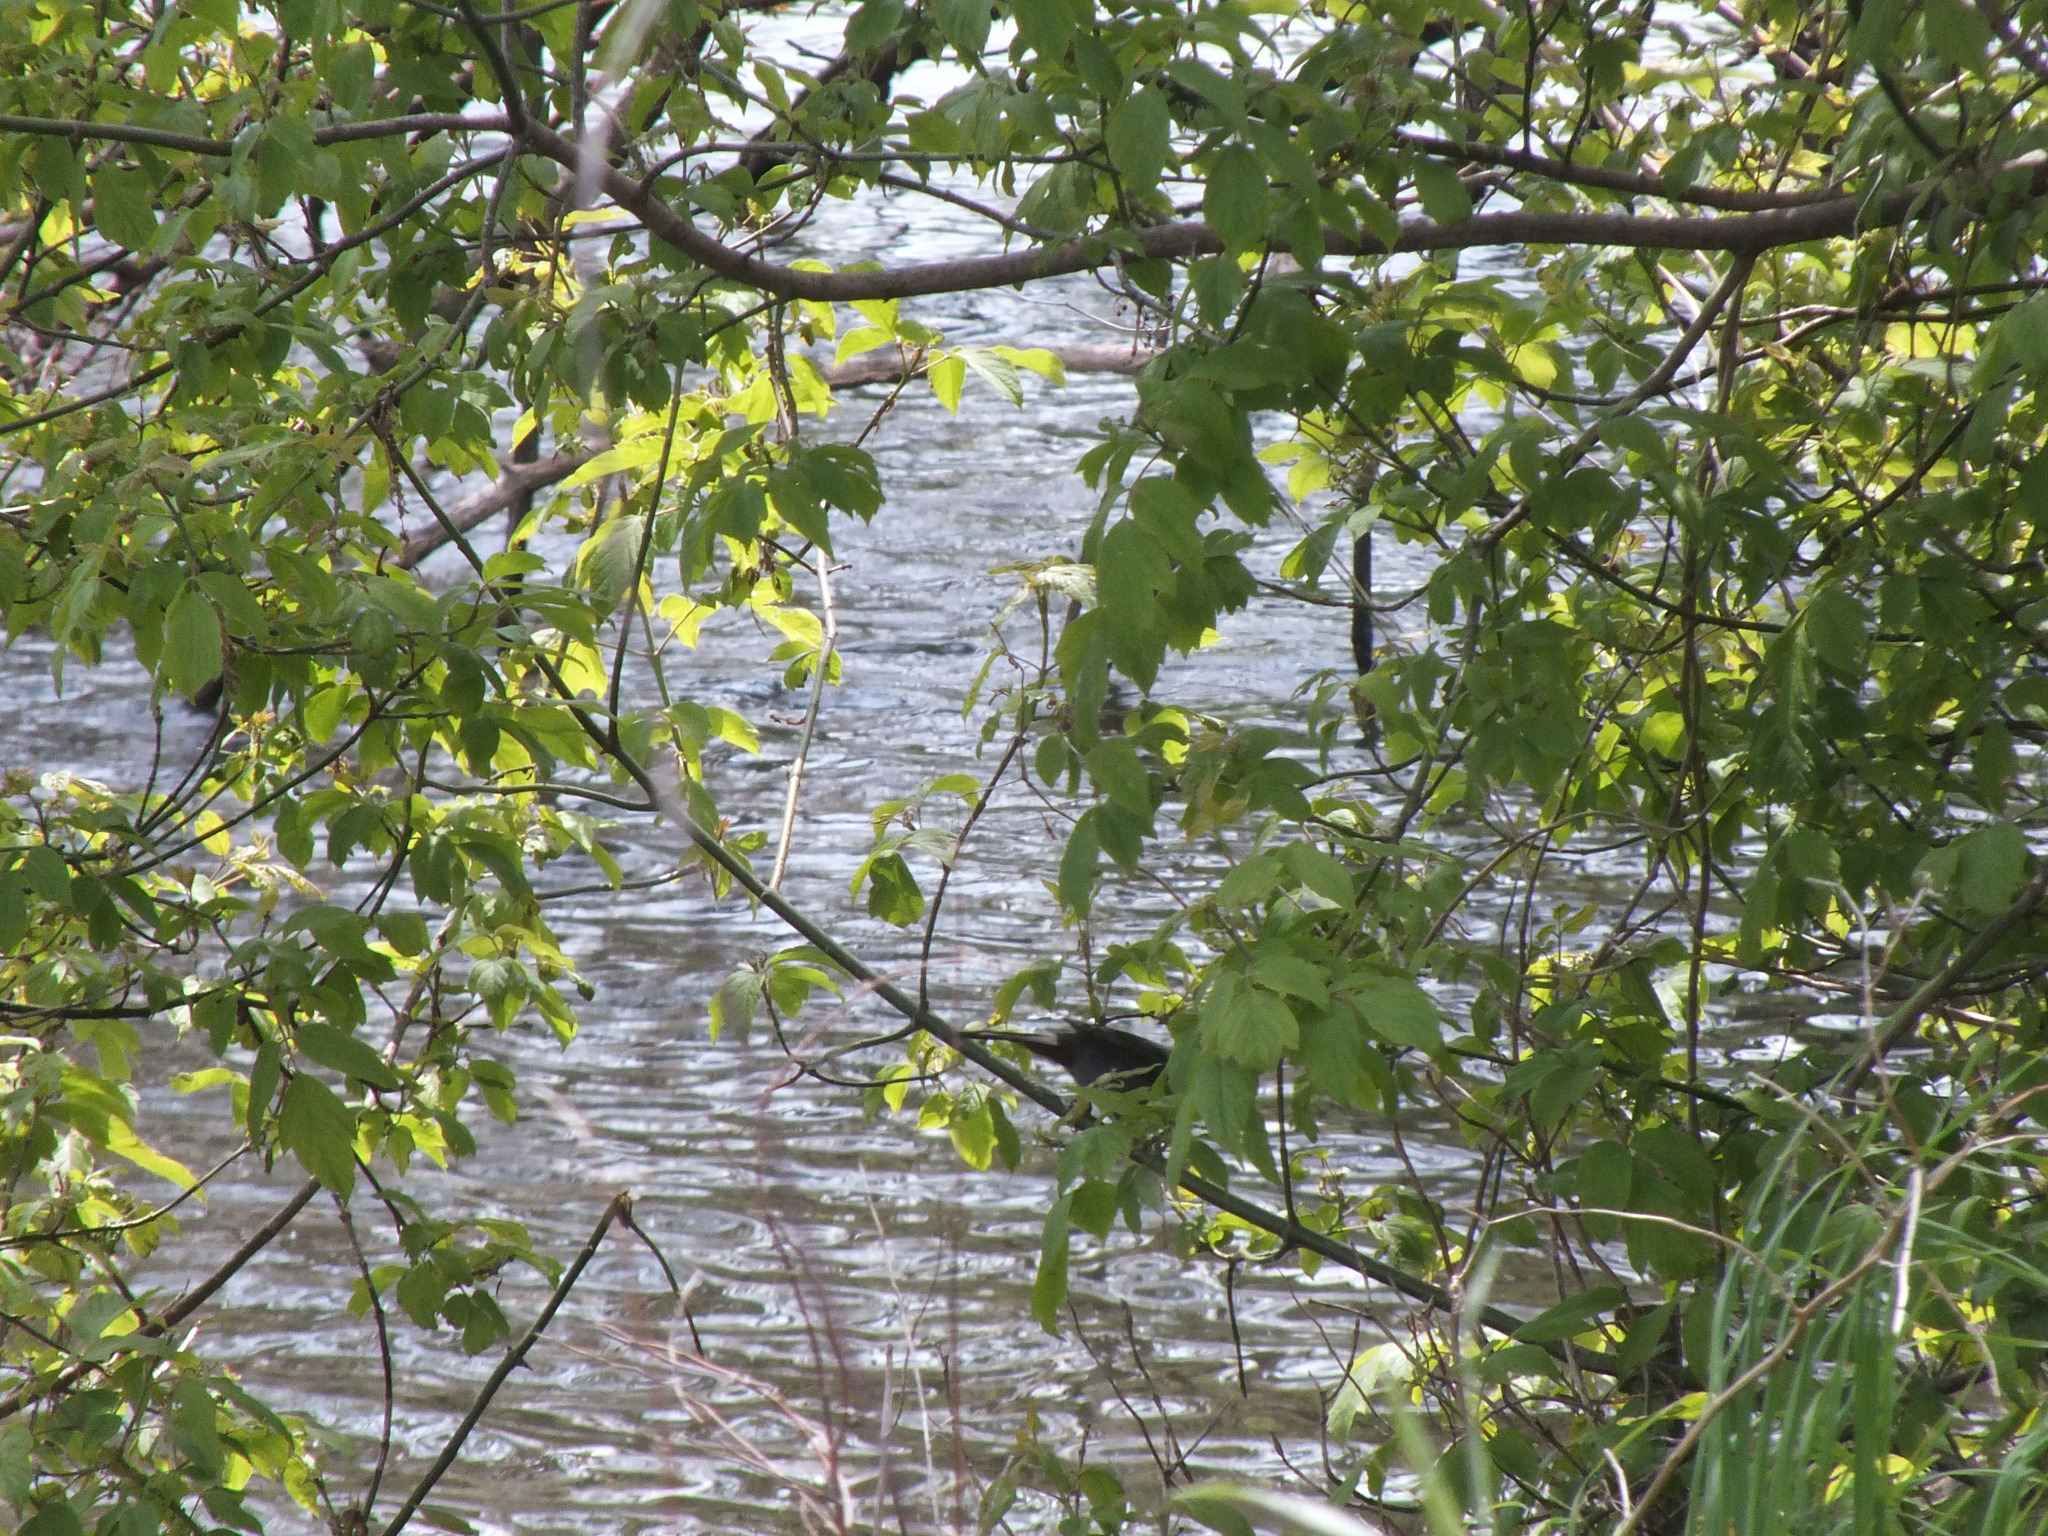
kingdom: Animalia
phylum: Chordata
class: Aves
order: Passeriformes
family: Mimidae
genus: Dumetella
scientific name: Dumetella carolinensis
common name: Gray catbird
